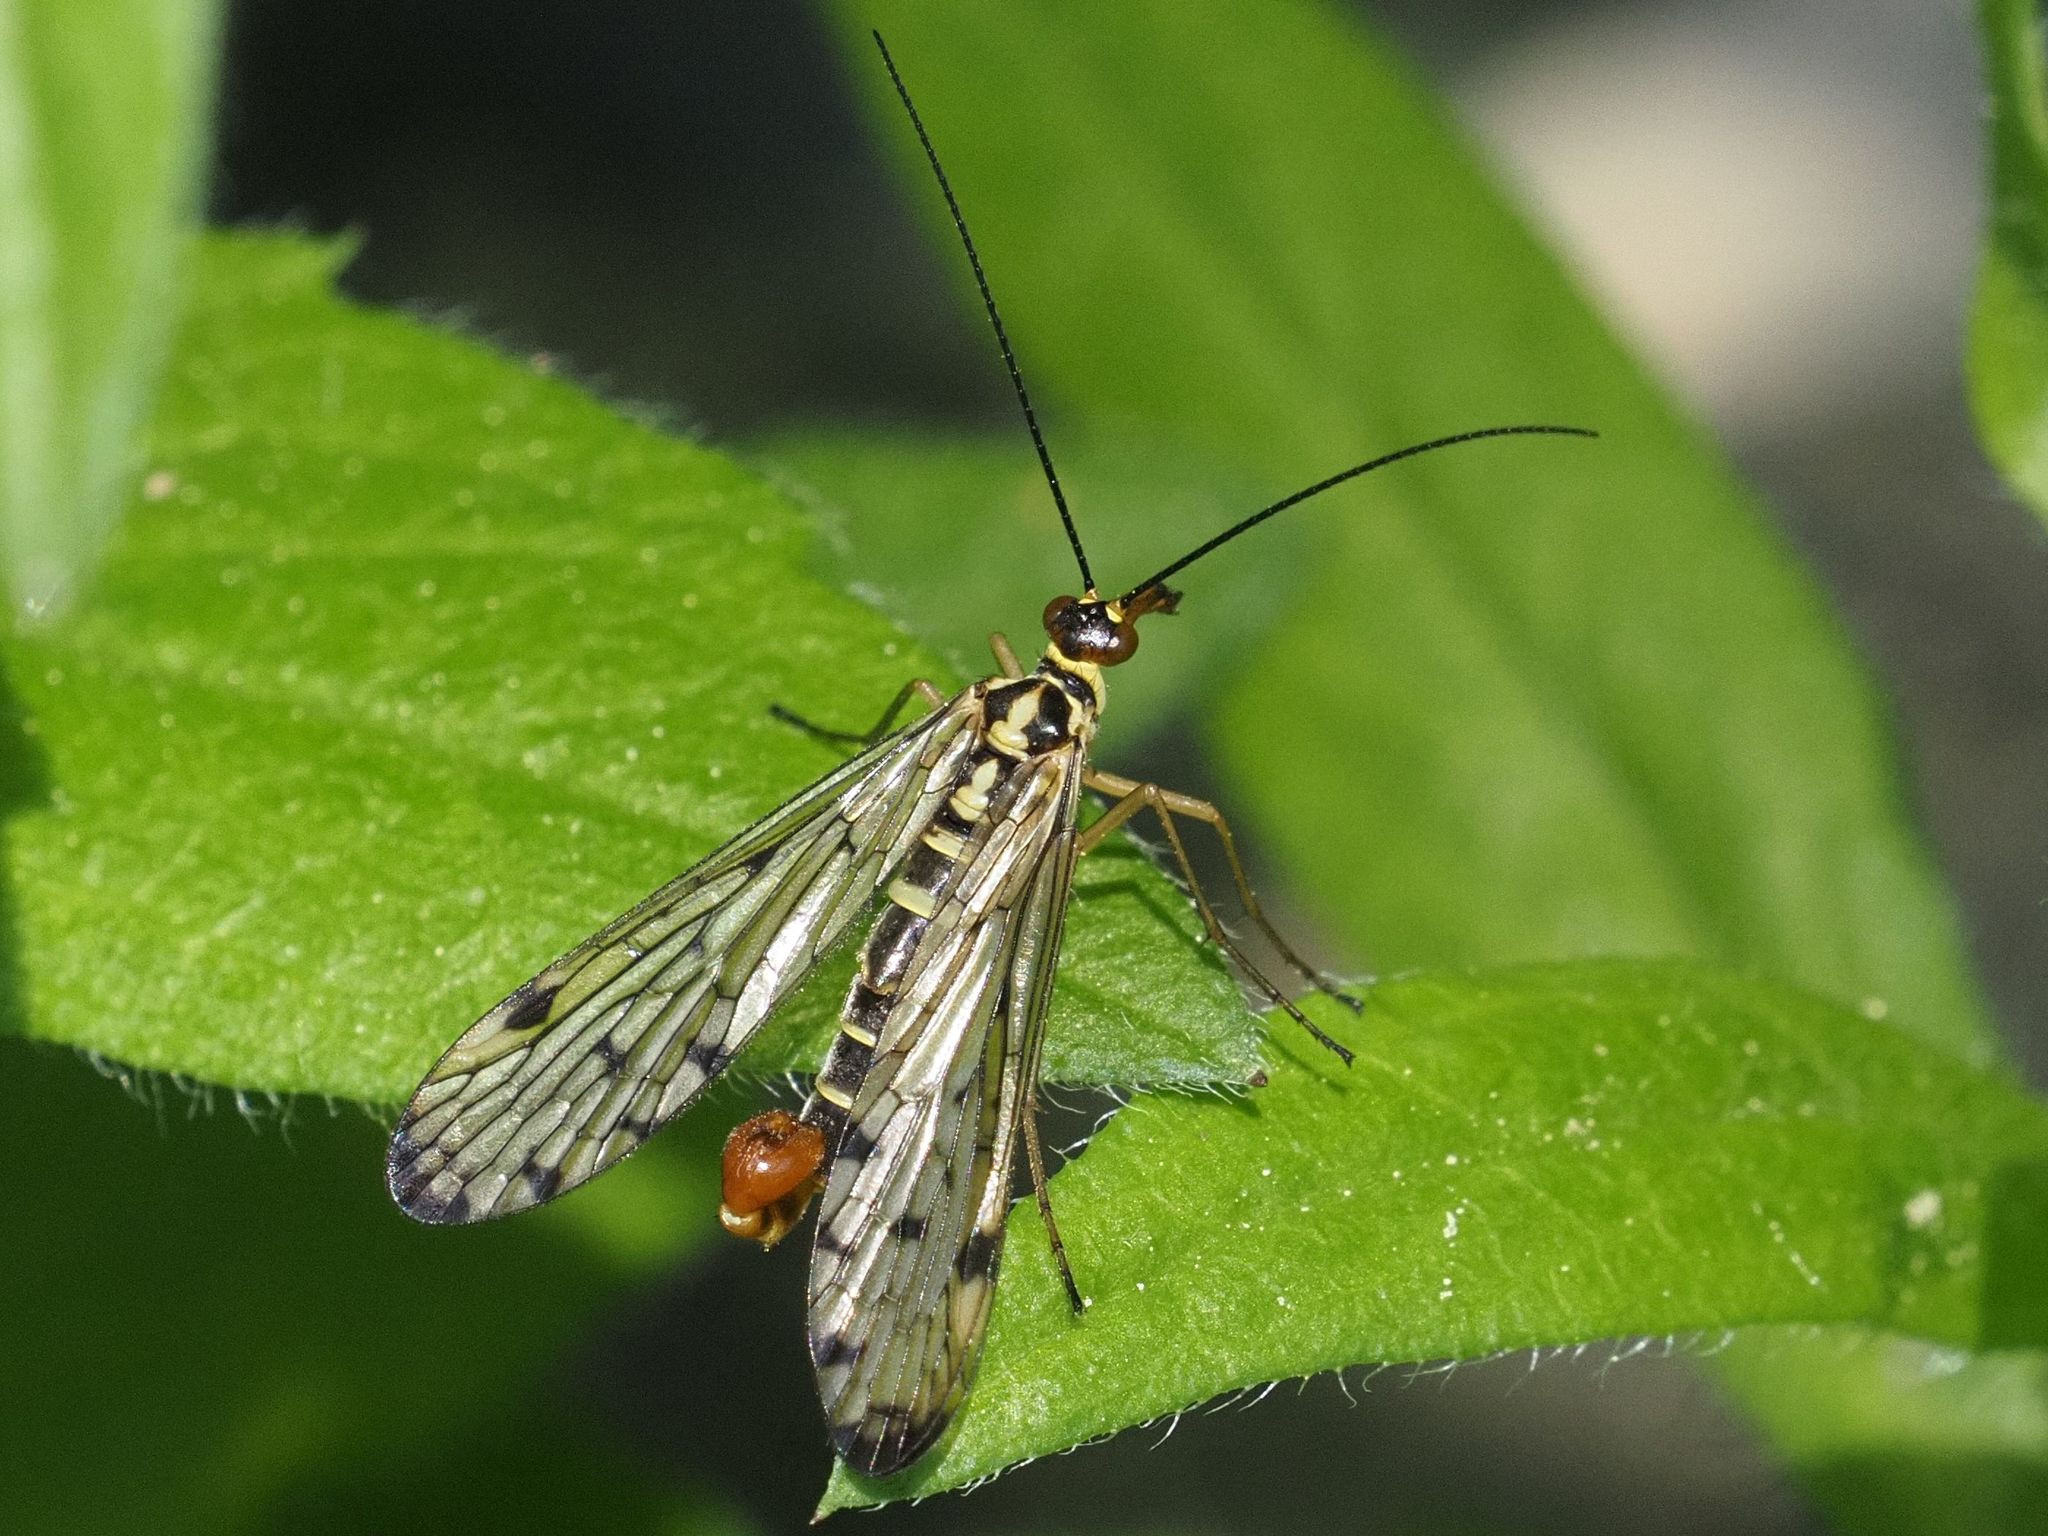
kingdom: Animalia
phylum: Arthropoda
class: Insecta
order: Mecoptera
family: Panorpidae
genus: Panorpa
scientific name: Panorpa germanica
